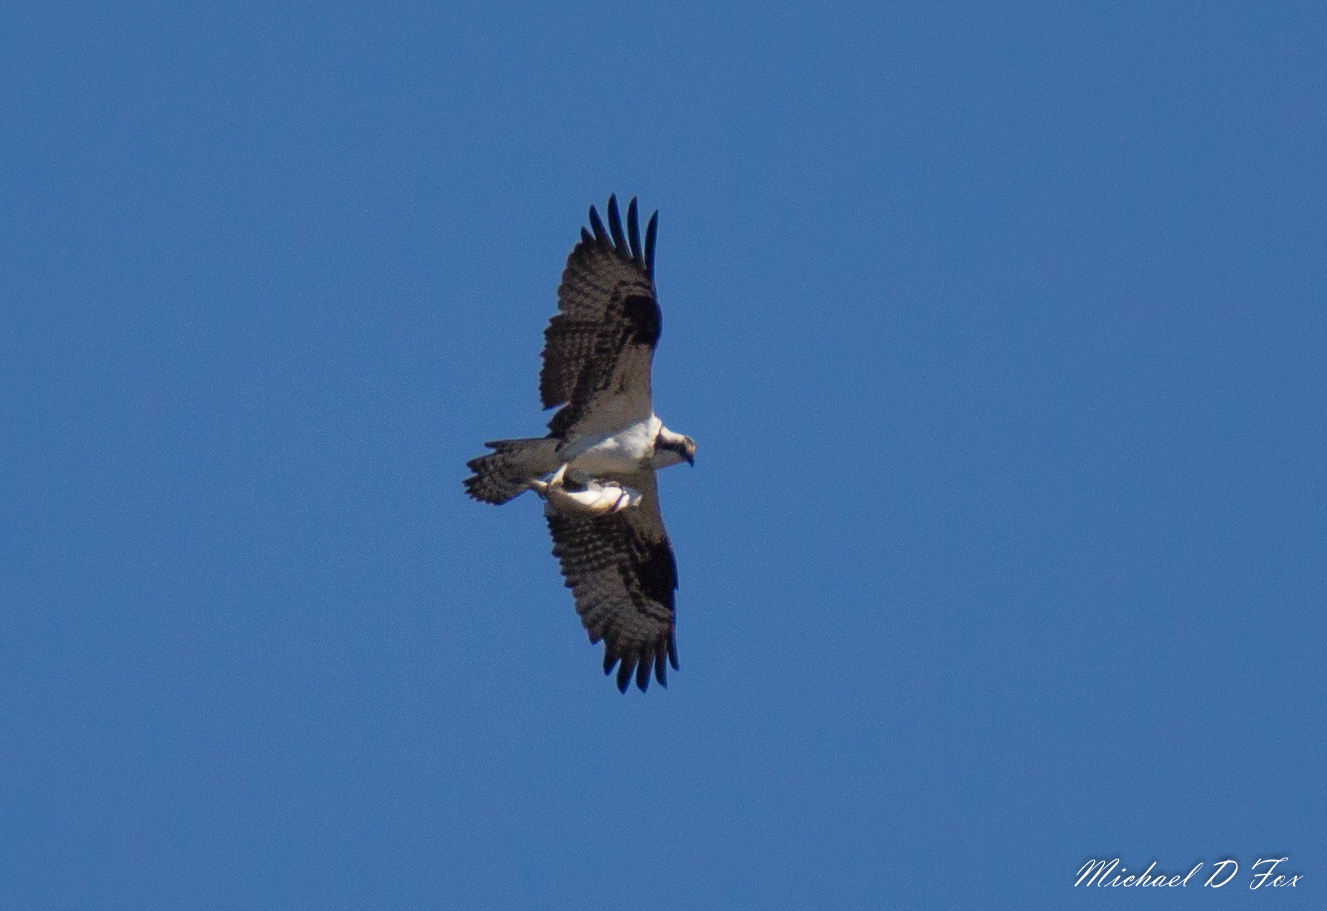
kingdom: Animalia
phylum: Chordata
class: Aves
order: Accipitriformes
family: Pandionidae
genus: Pandion
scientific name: Pandion haliaetus
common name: Osprey
